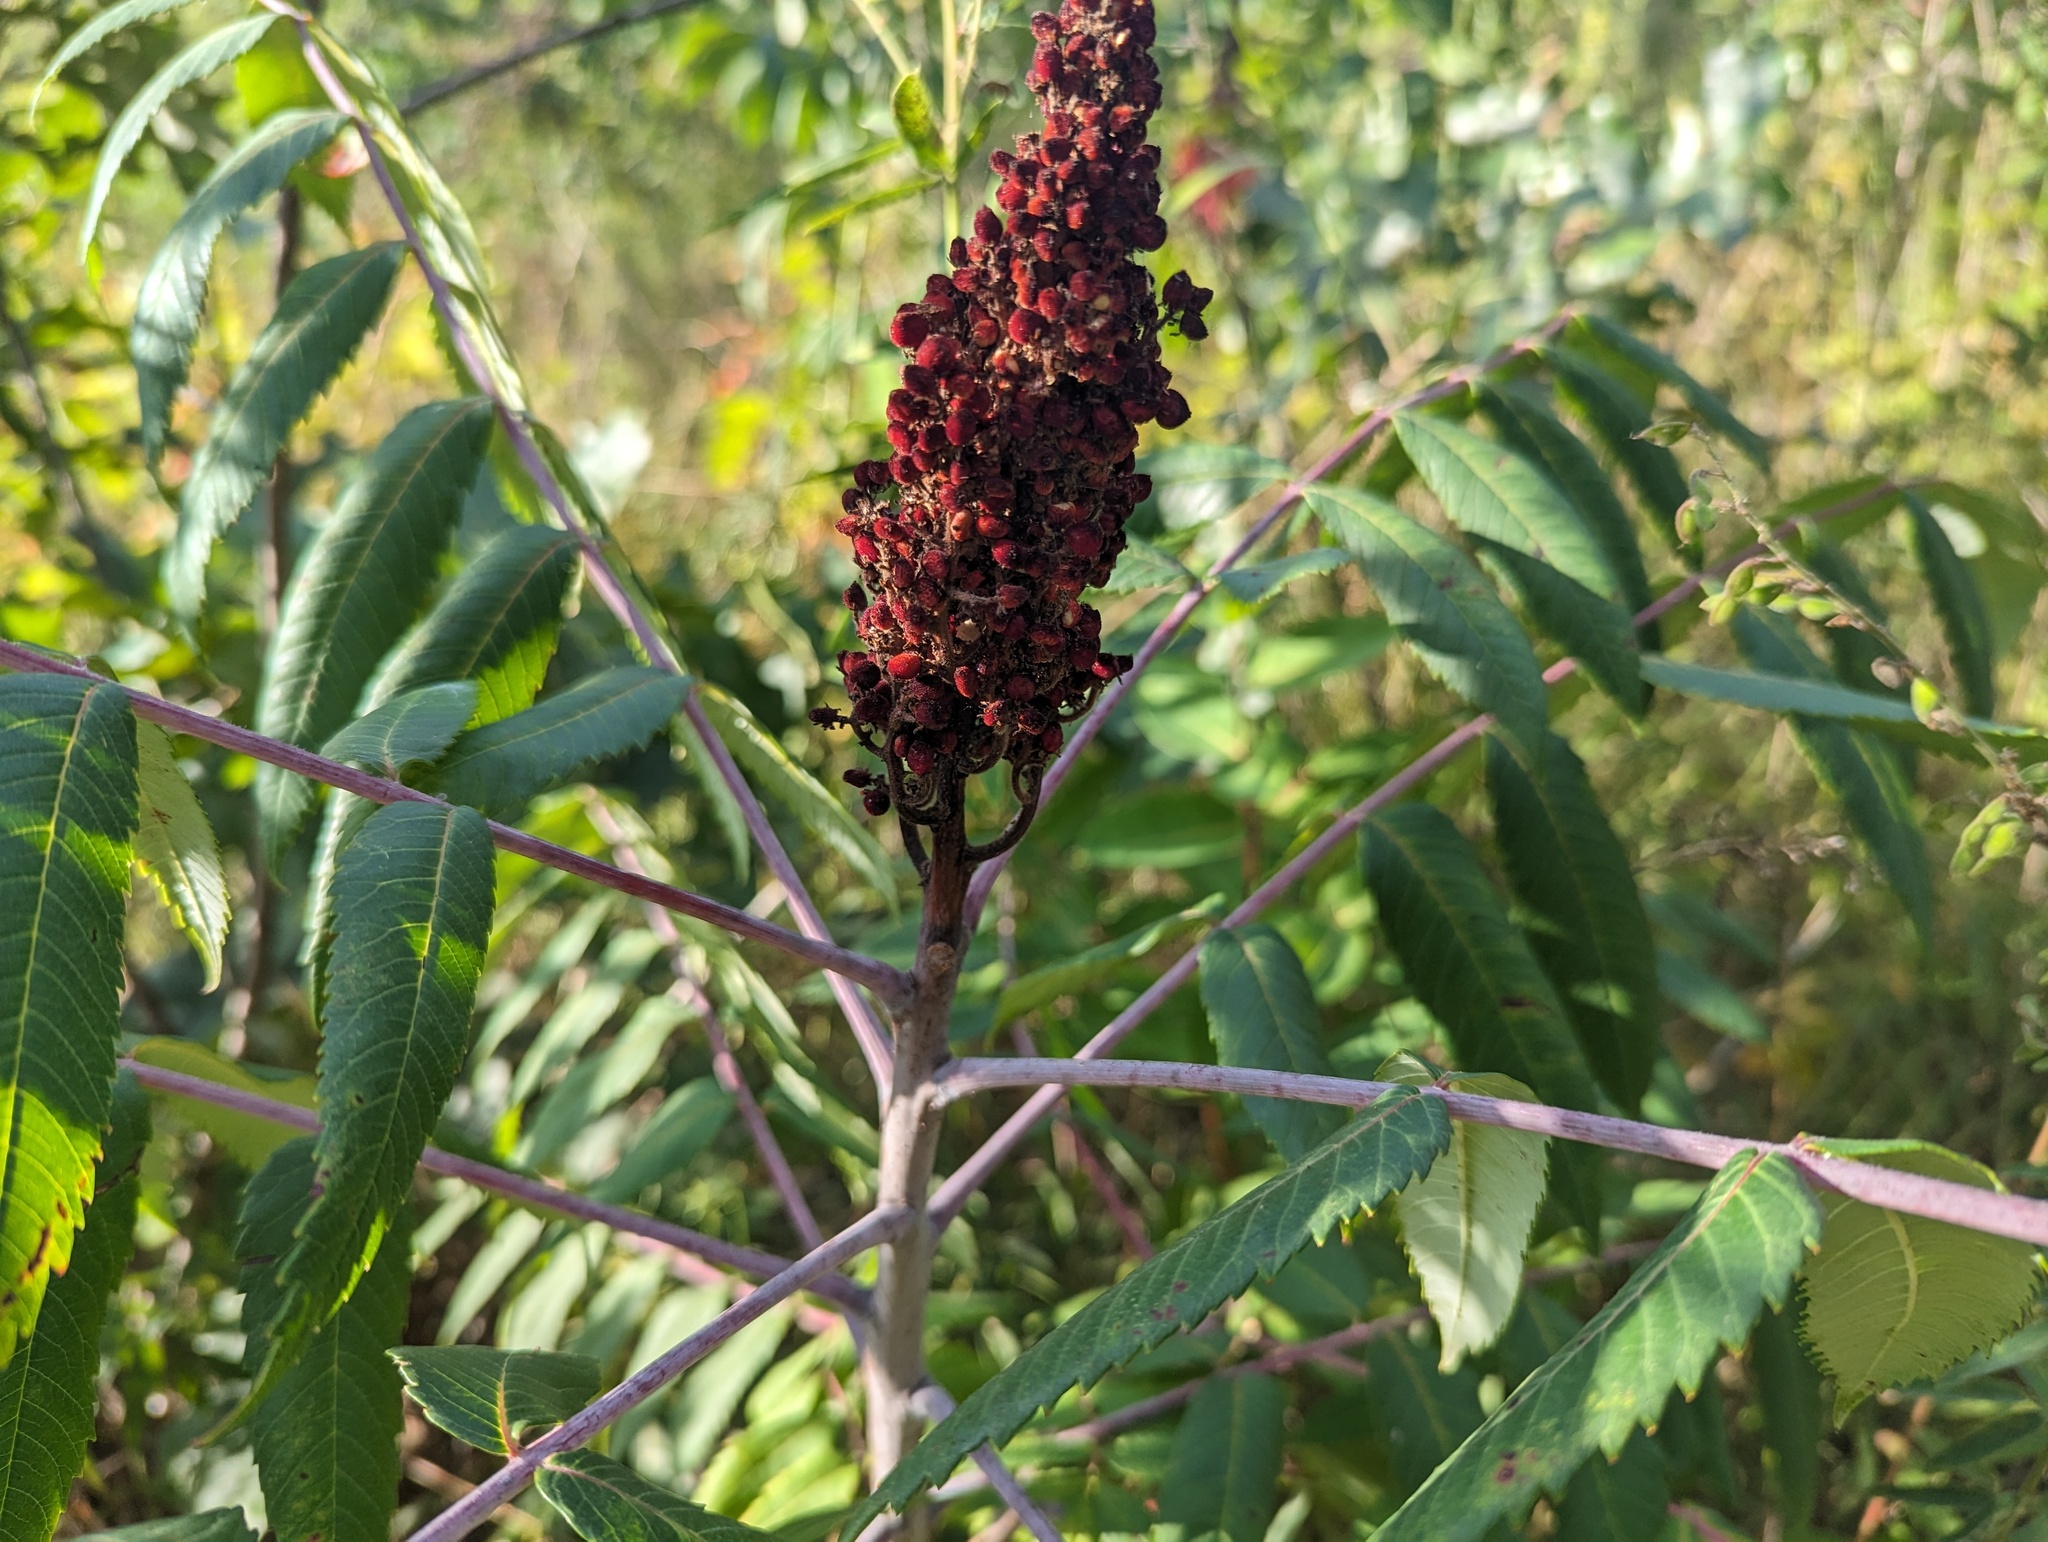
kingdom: Plantae
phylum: Tracheophyta
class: Magnoliopsida
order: Sapindales
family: Anacardiaceae
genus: Rhus
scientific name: Rhus typhina
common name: Staghorn sumac
